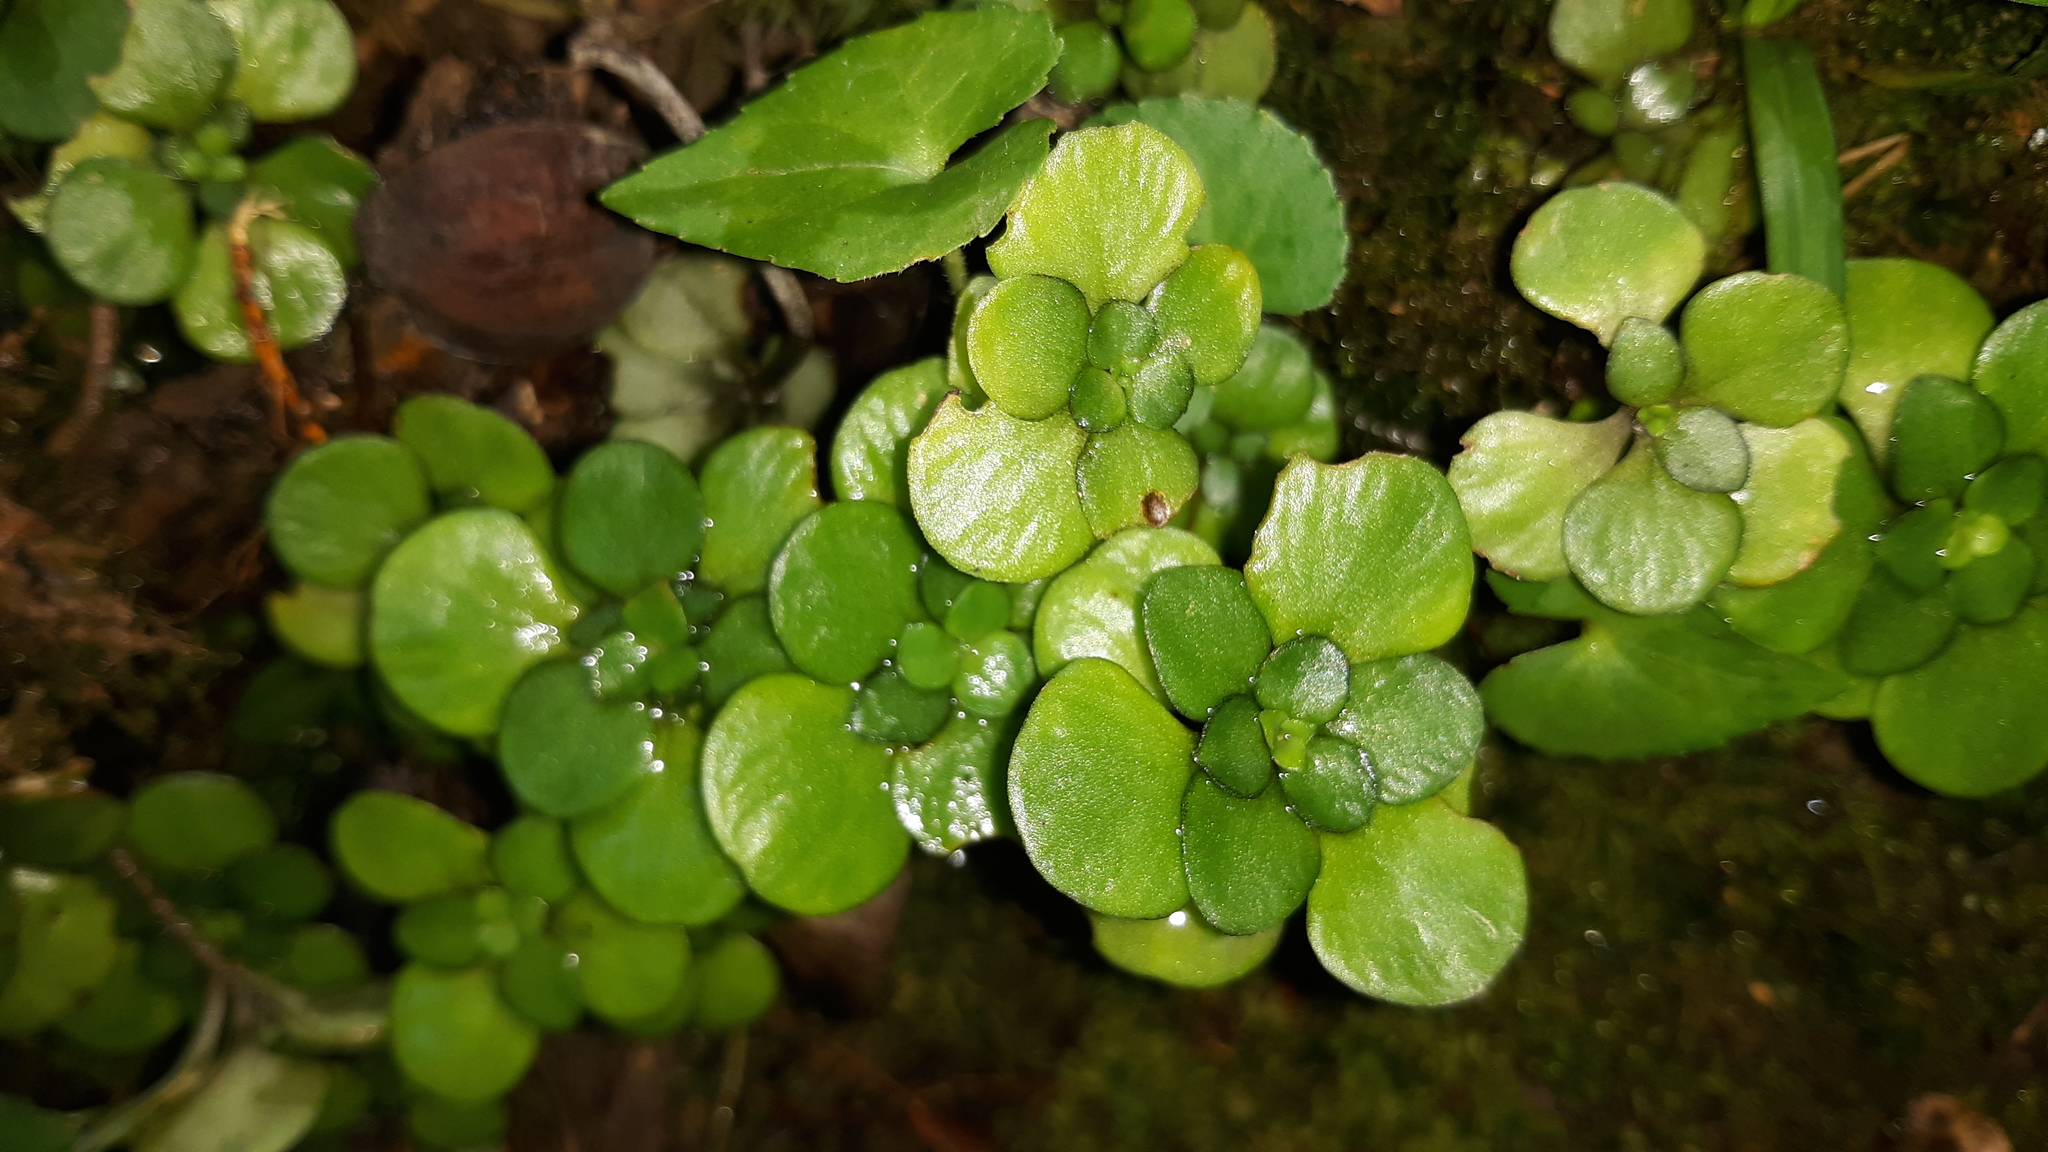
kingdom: Plantae
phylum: Tracheophyta
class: Magnoliopsida
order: Saxifragales
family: Crassulaceae
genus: Sedum
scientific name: Sedum ternatum
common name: Wild stonecrop
